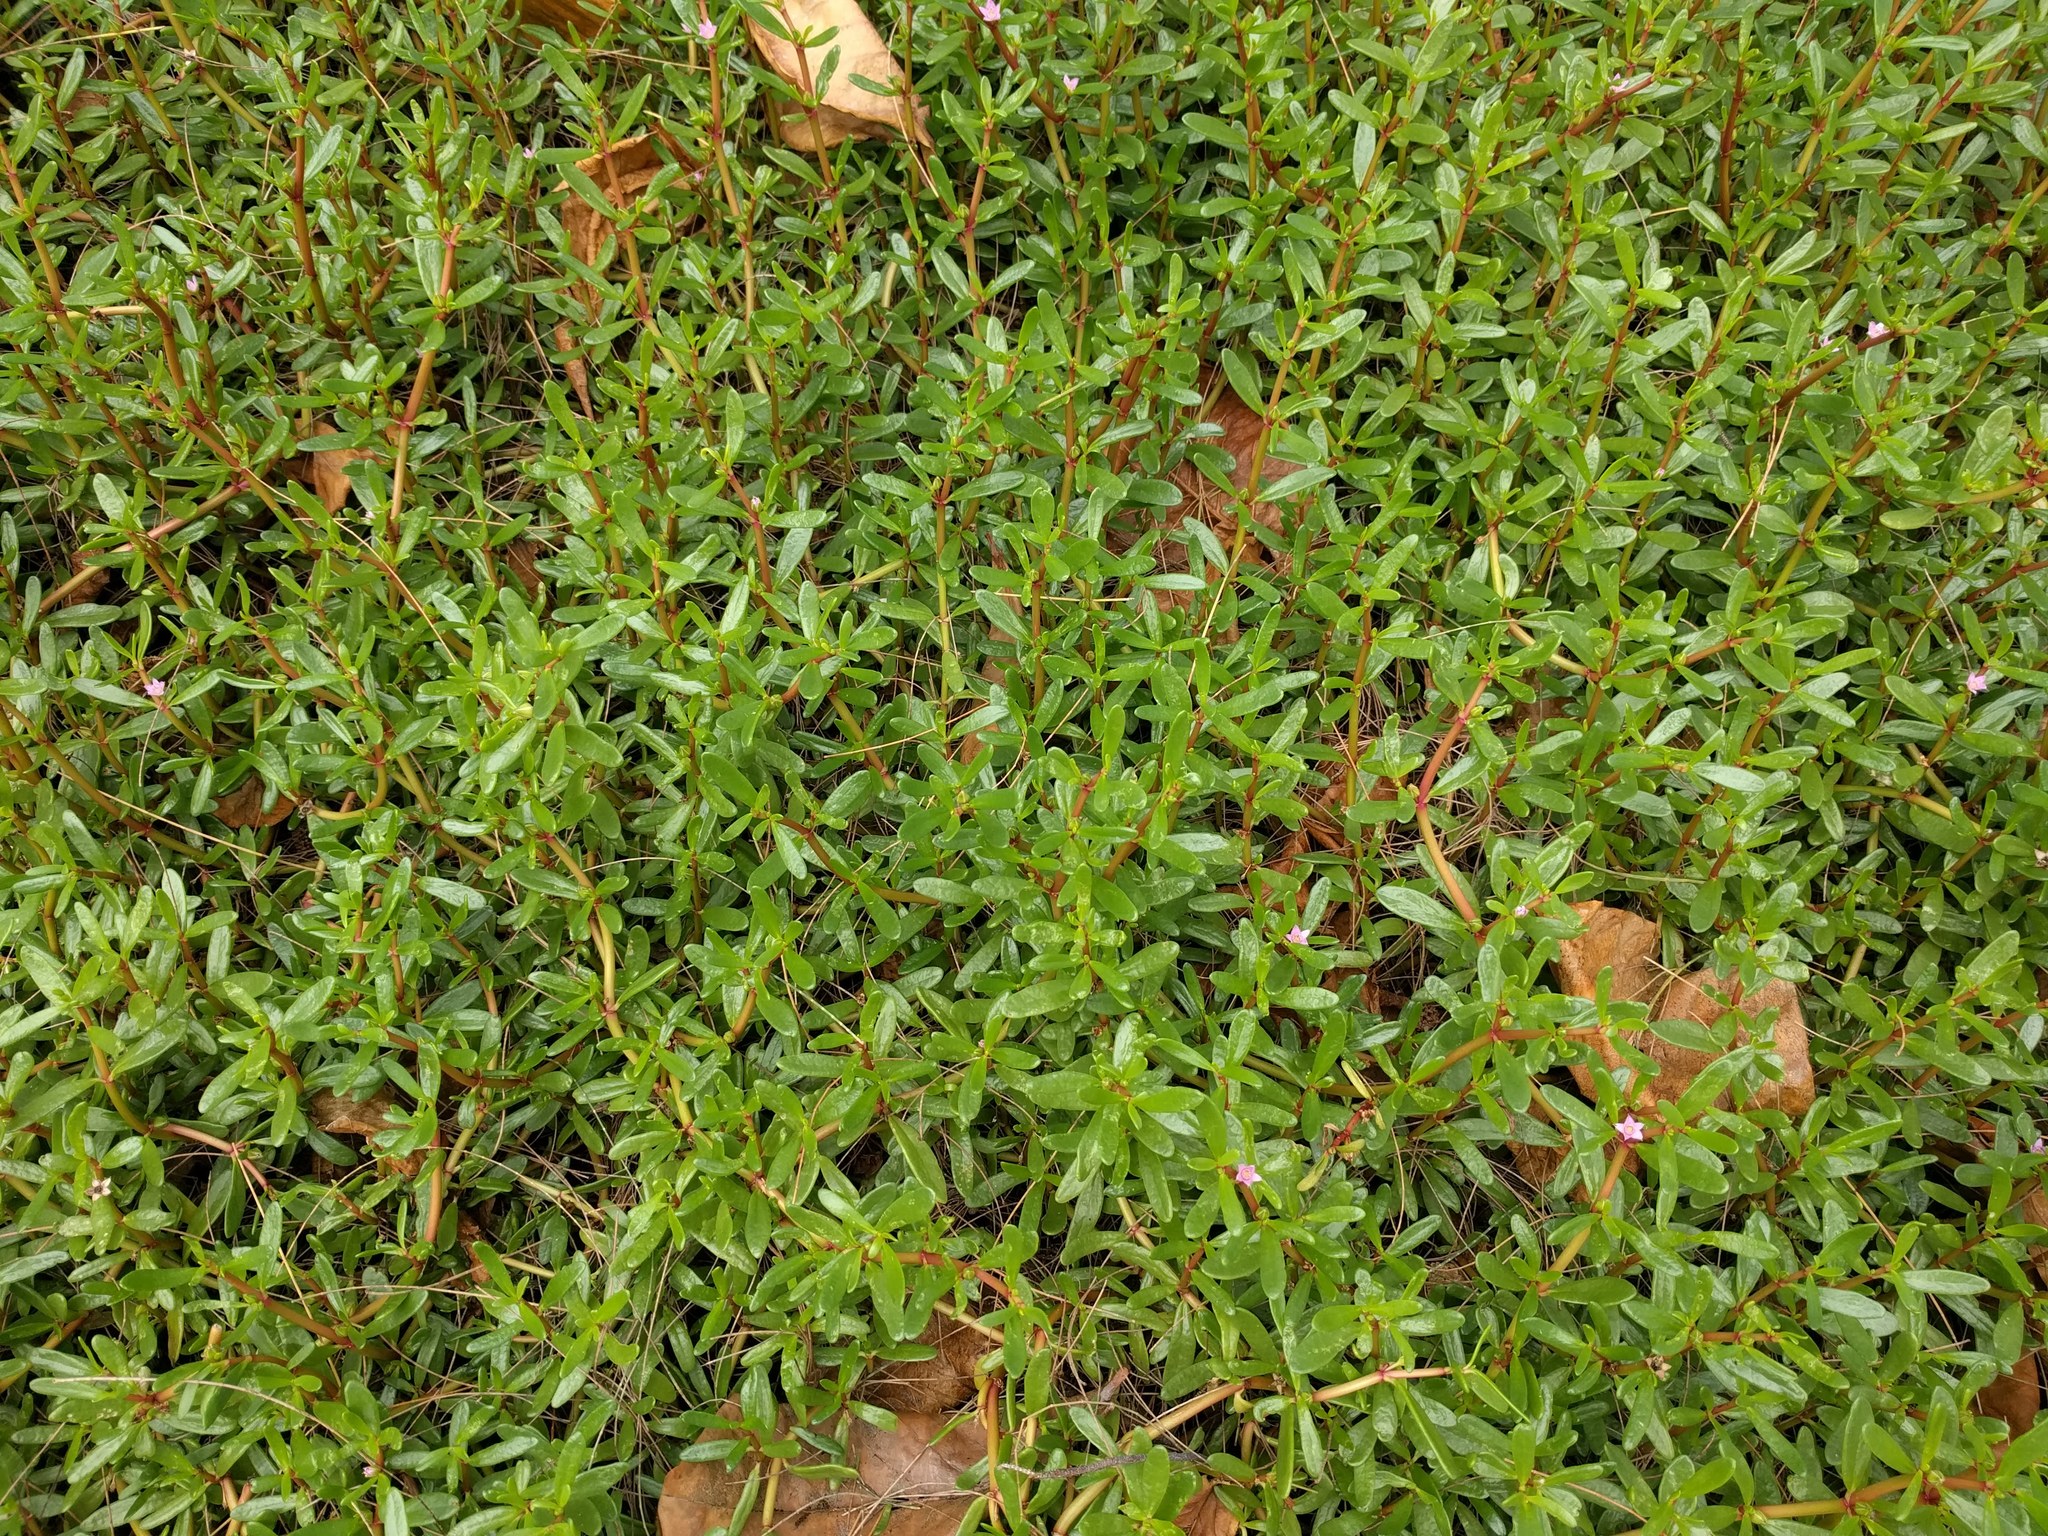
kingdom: Plantae
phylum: Tracheophyta
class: Magnoliopsida
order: Caryophyllales
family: Aizoaceae
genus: Sesuvium
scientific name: Sesuvium portulacastrum
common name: Sea-purslane
